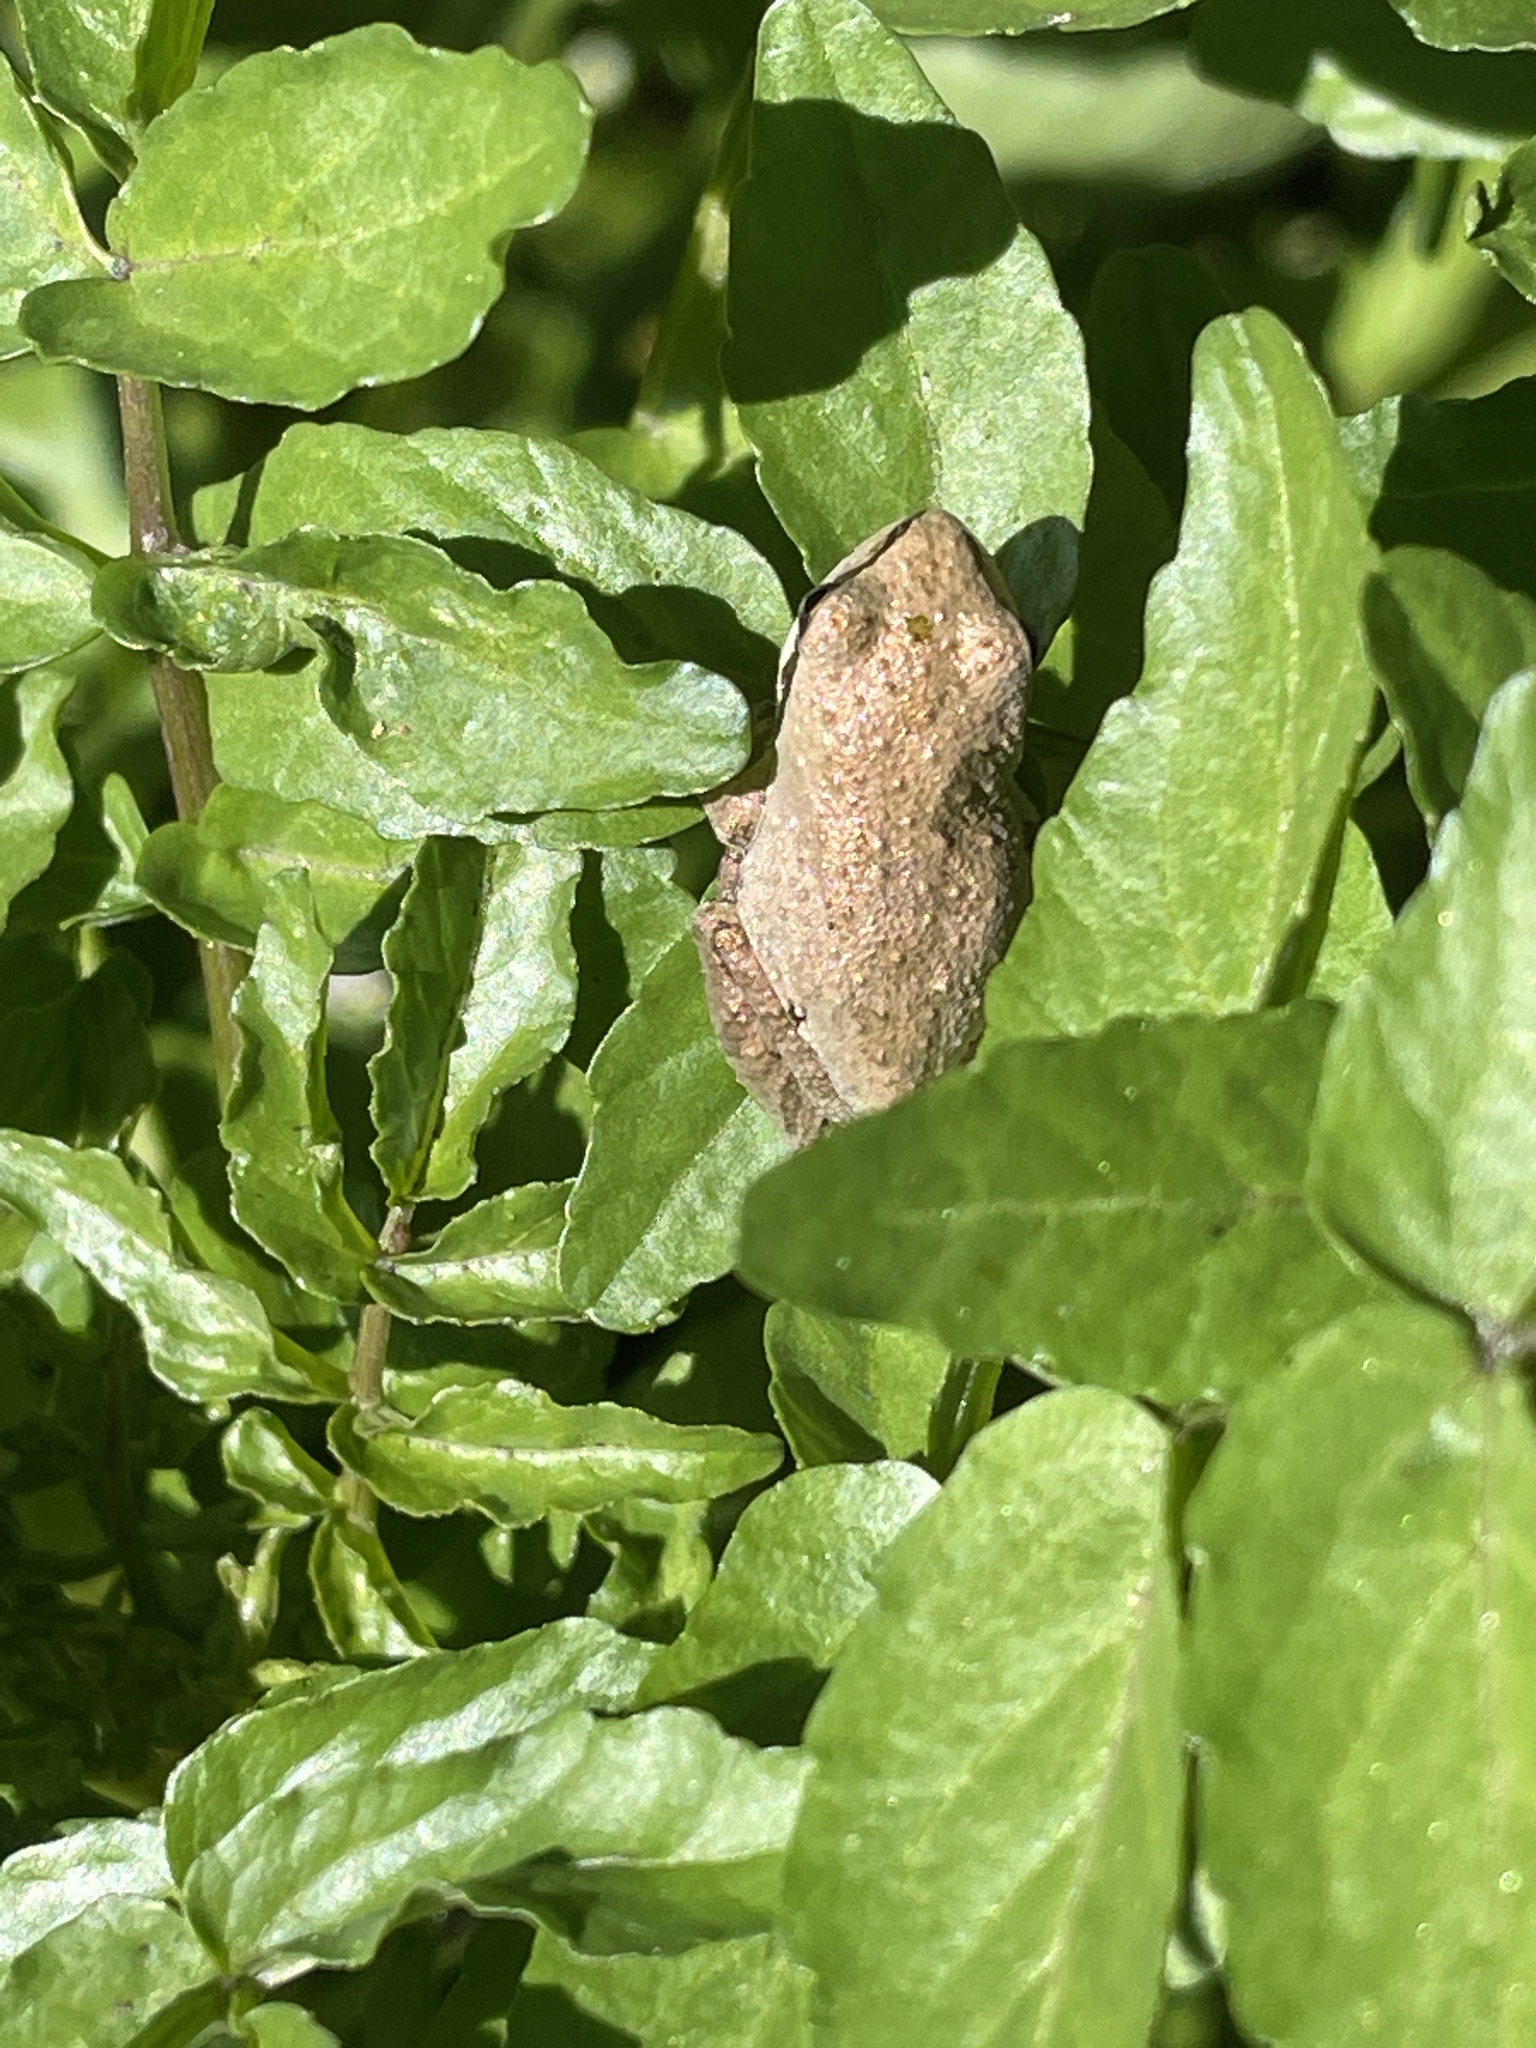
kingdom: Animalia
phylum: Chordata
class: Amphibia
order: Anura
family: Hylidae
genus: Pseudacris
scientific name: Pseudacris regilla
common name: Pacific chorus frog
